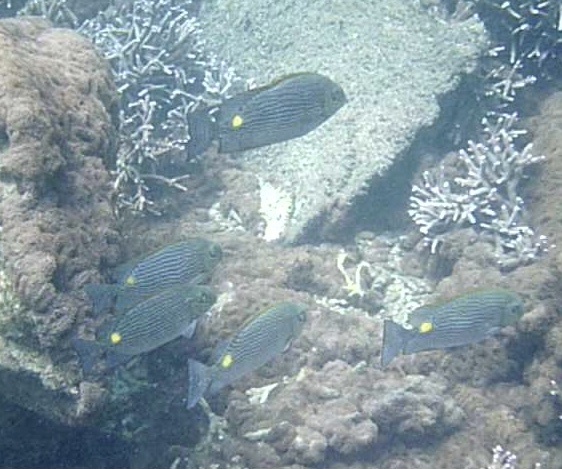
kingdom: Animalia
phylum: Chordata
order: Perciformes
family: Siganidae
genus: Siganus
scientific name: Siganus lineatus
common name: Lined rabbitfish
